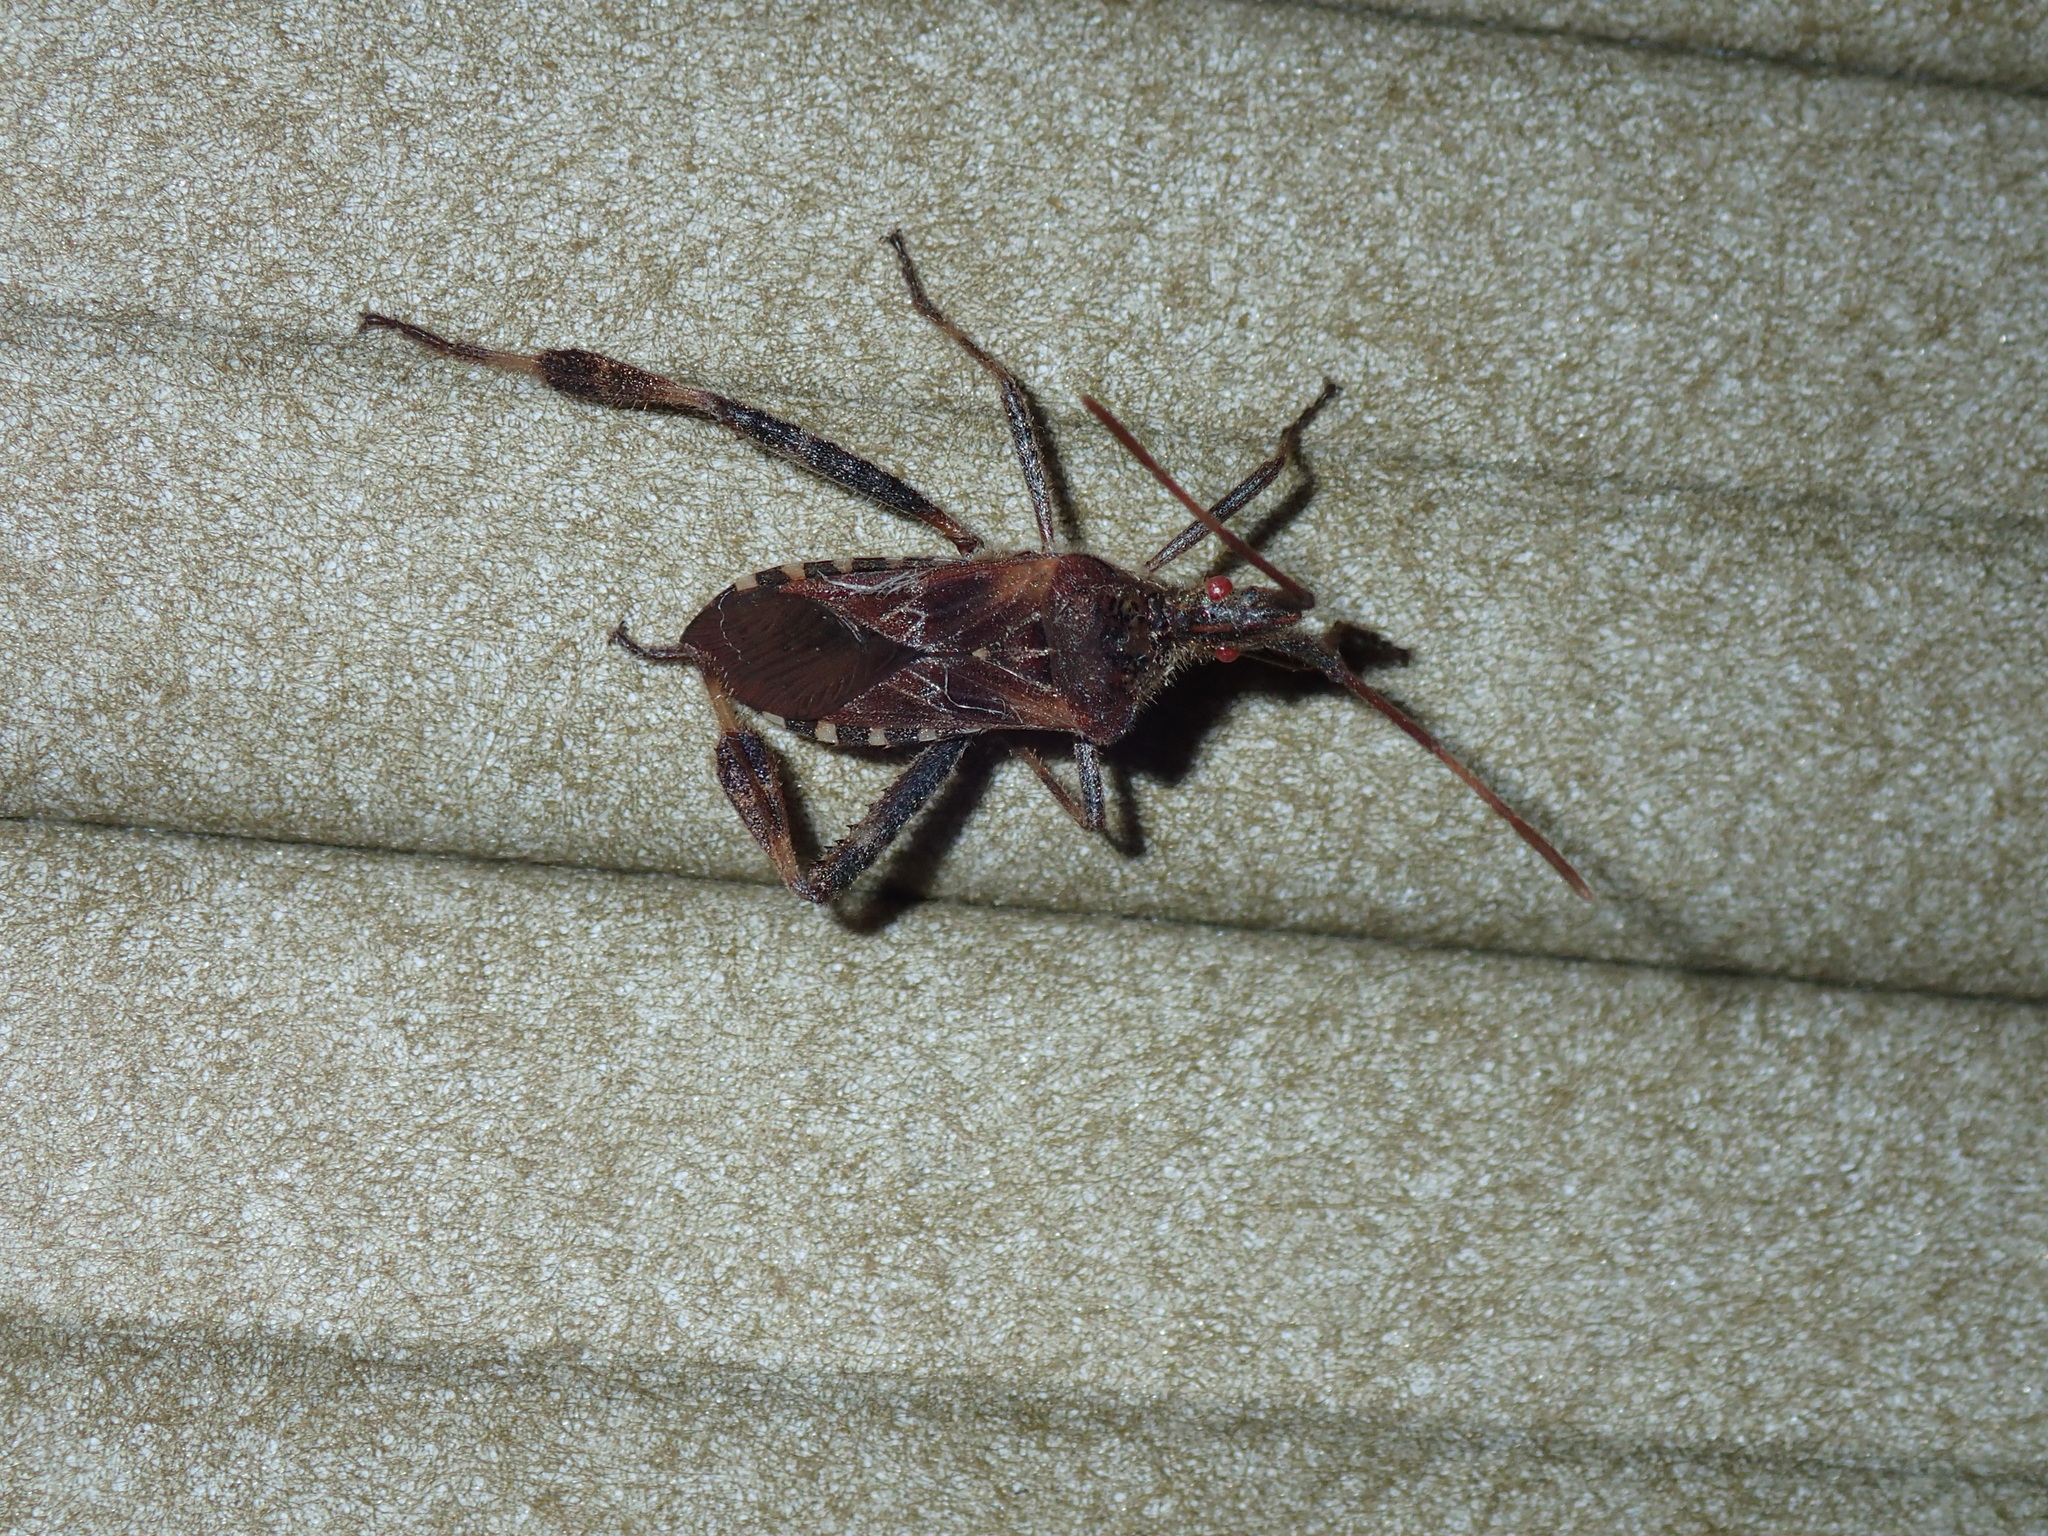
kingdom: Animalia
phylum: Arthropoda
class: Insecta
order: Hemiptera
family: Coreidae
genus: Leptoglossus
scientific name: Leptoglossus occidentalis
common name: Western conifer-seed bug
